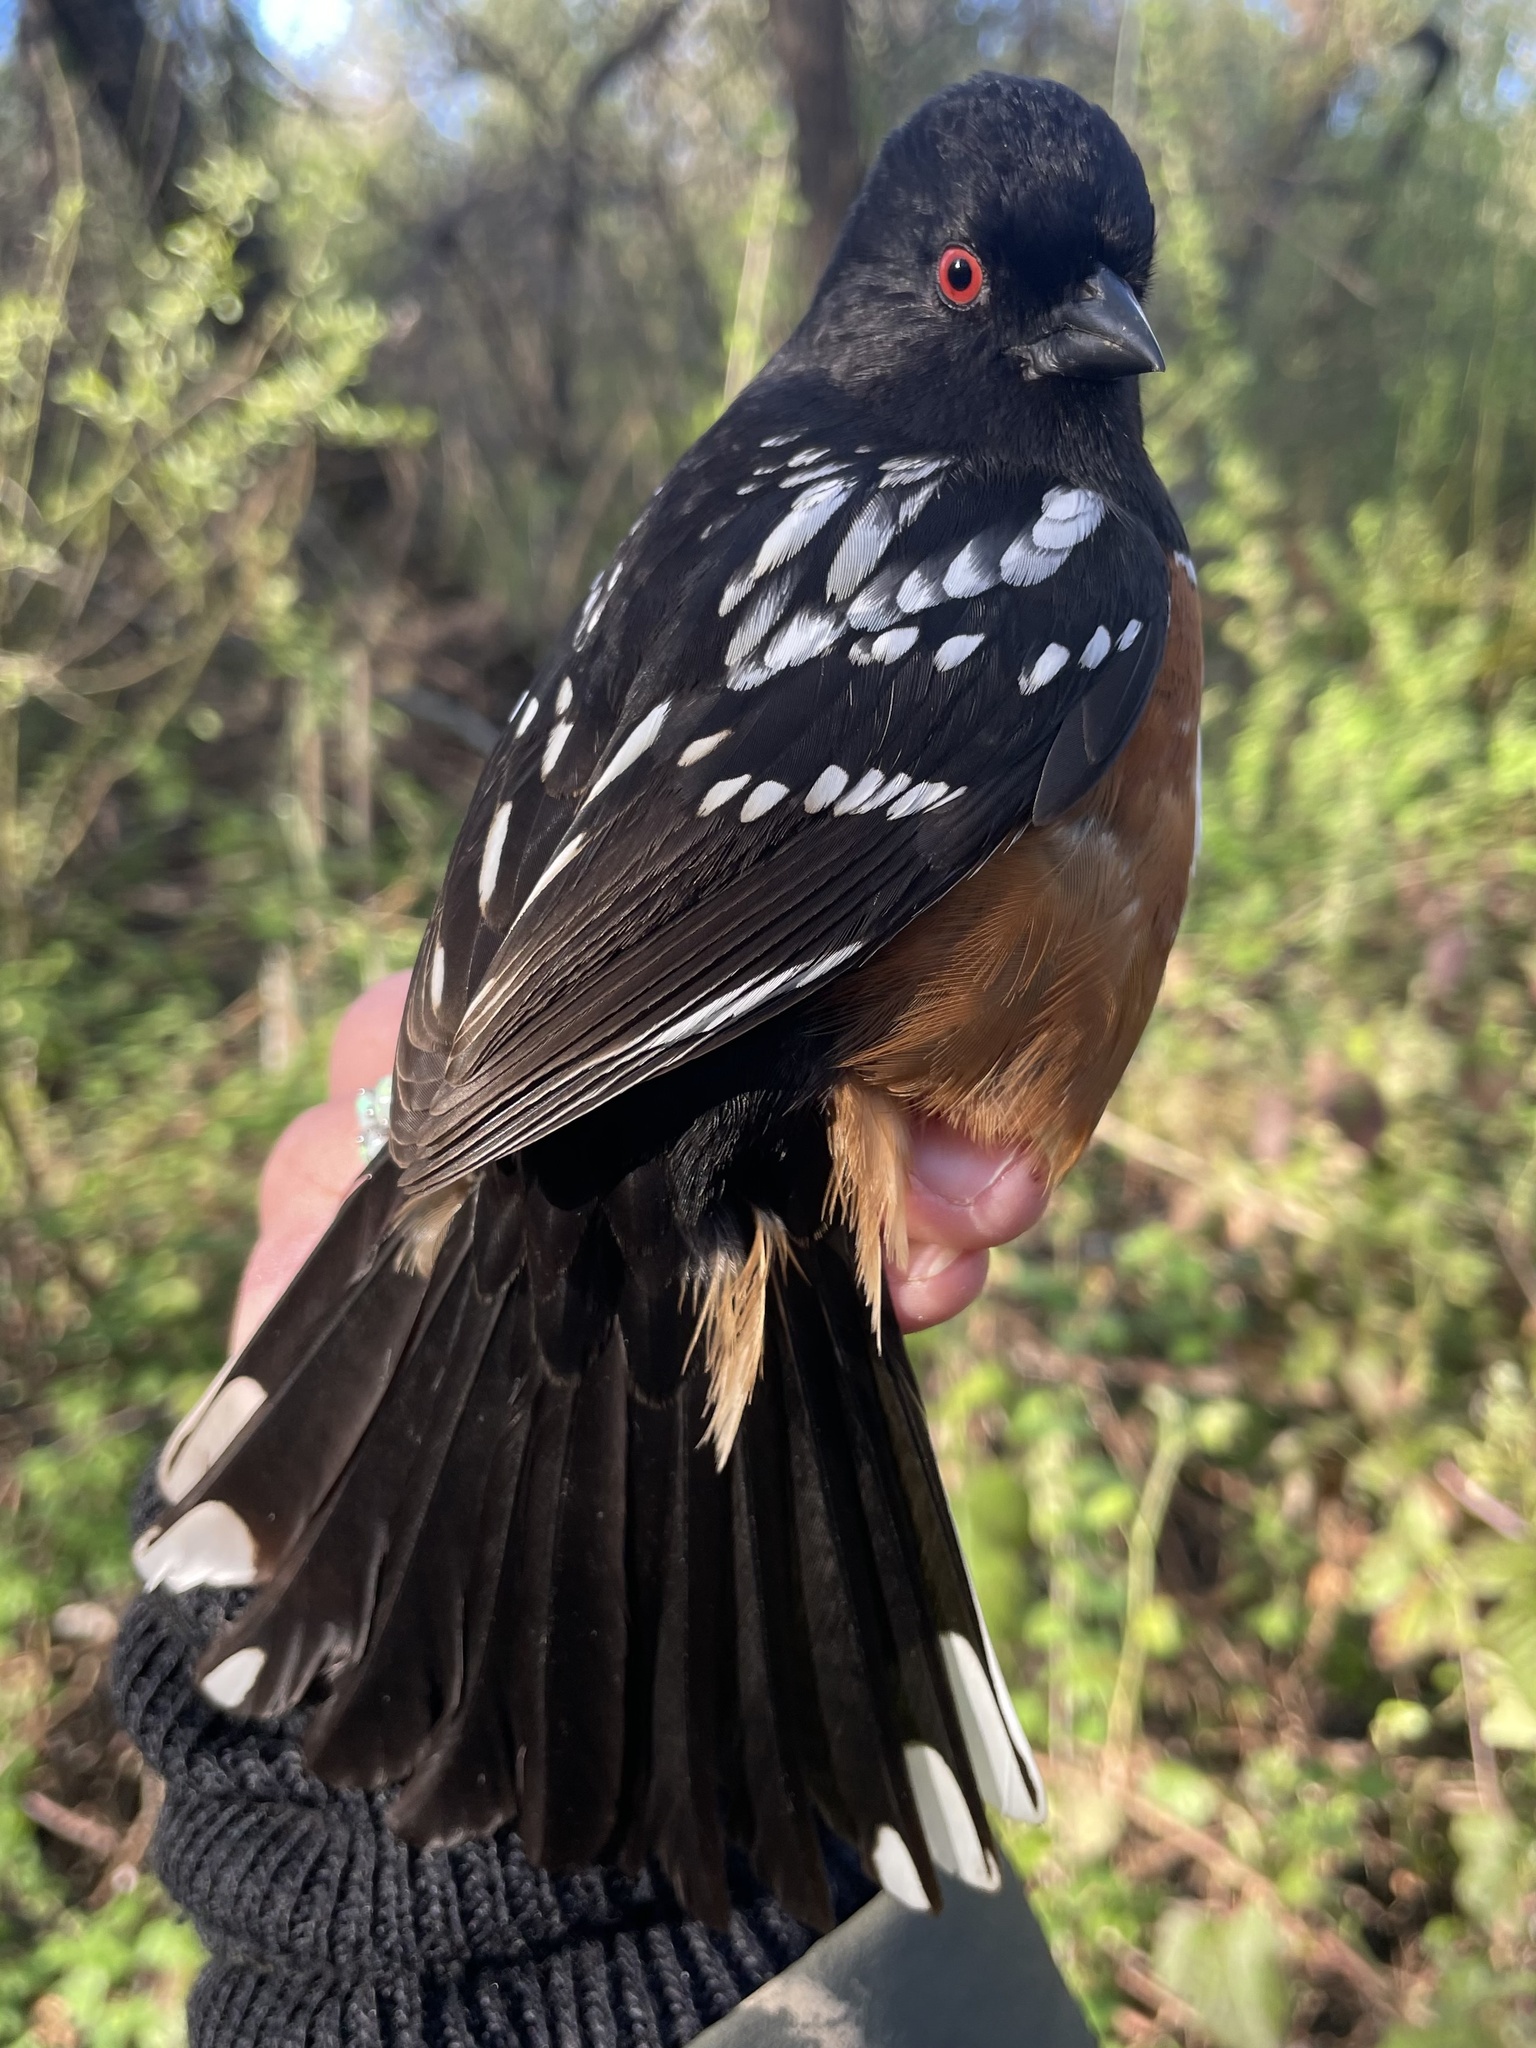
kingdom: Animalia
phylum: Chordata
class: Aves
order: Passeriformes
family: Passerellidae
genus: Pipilo
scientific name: Pipilo maculatus
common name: Spotted towhee
